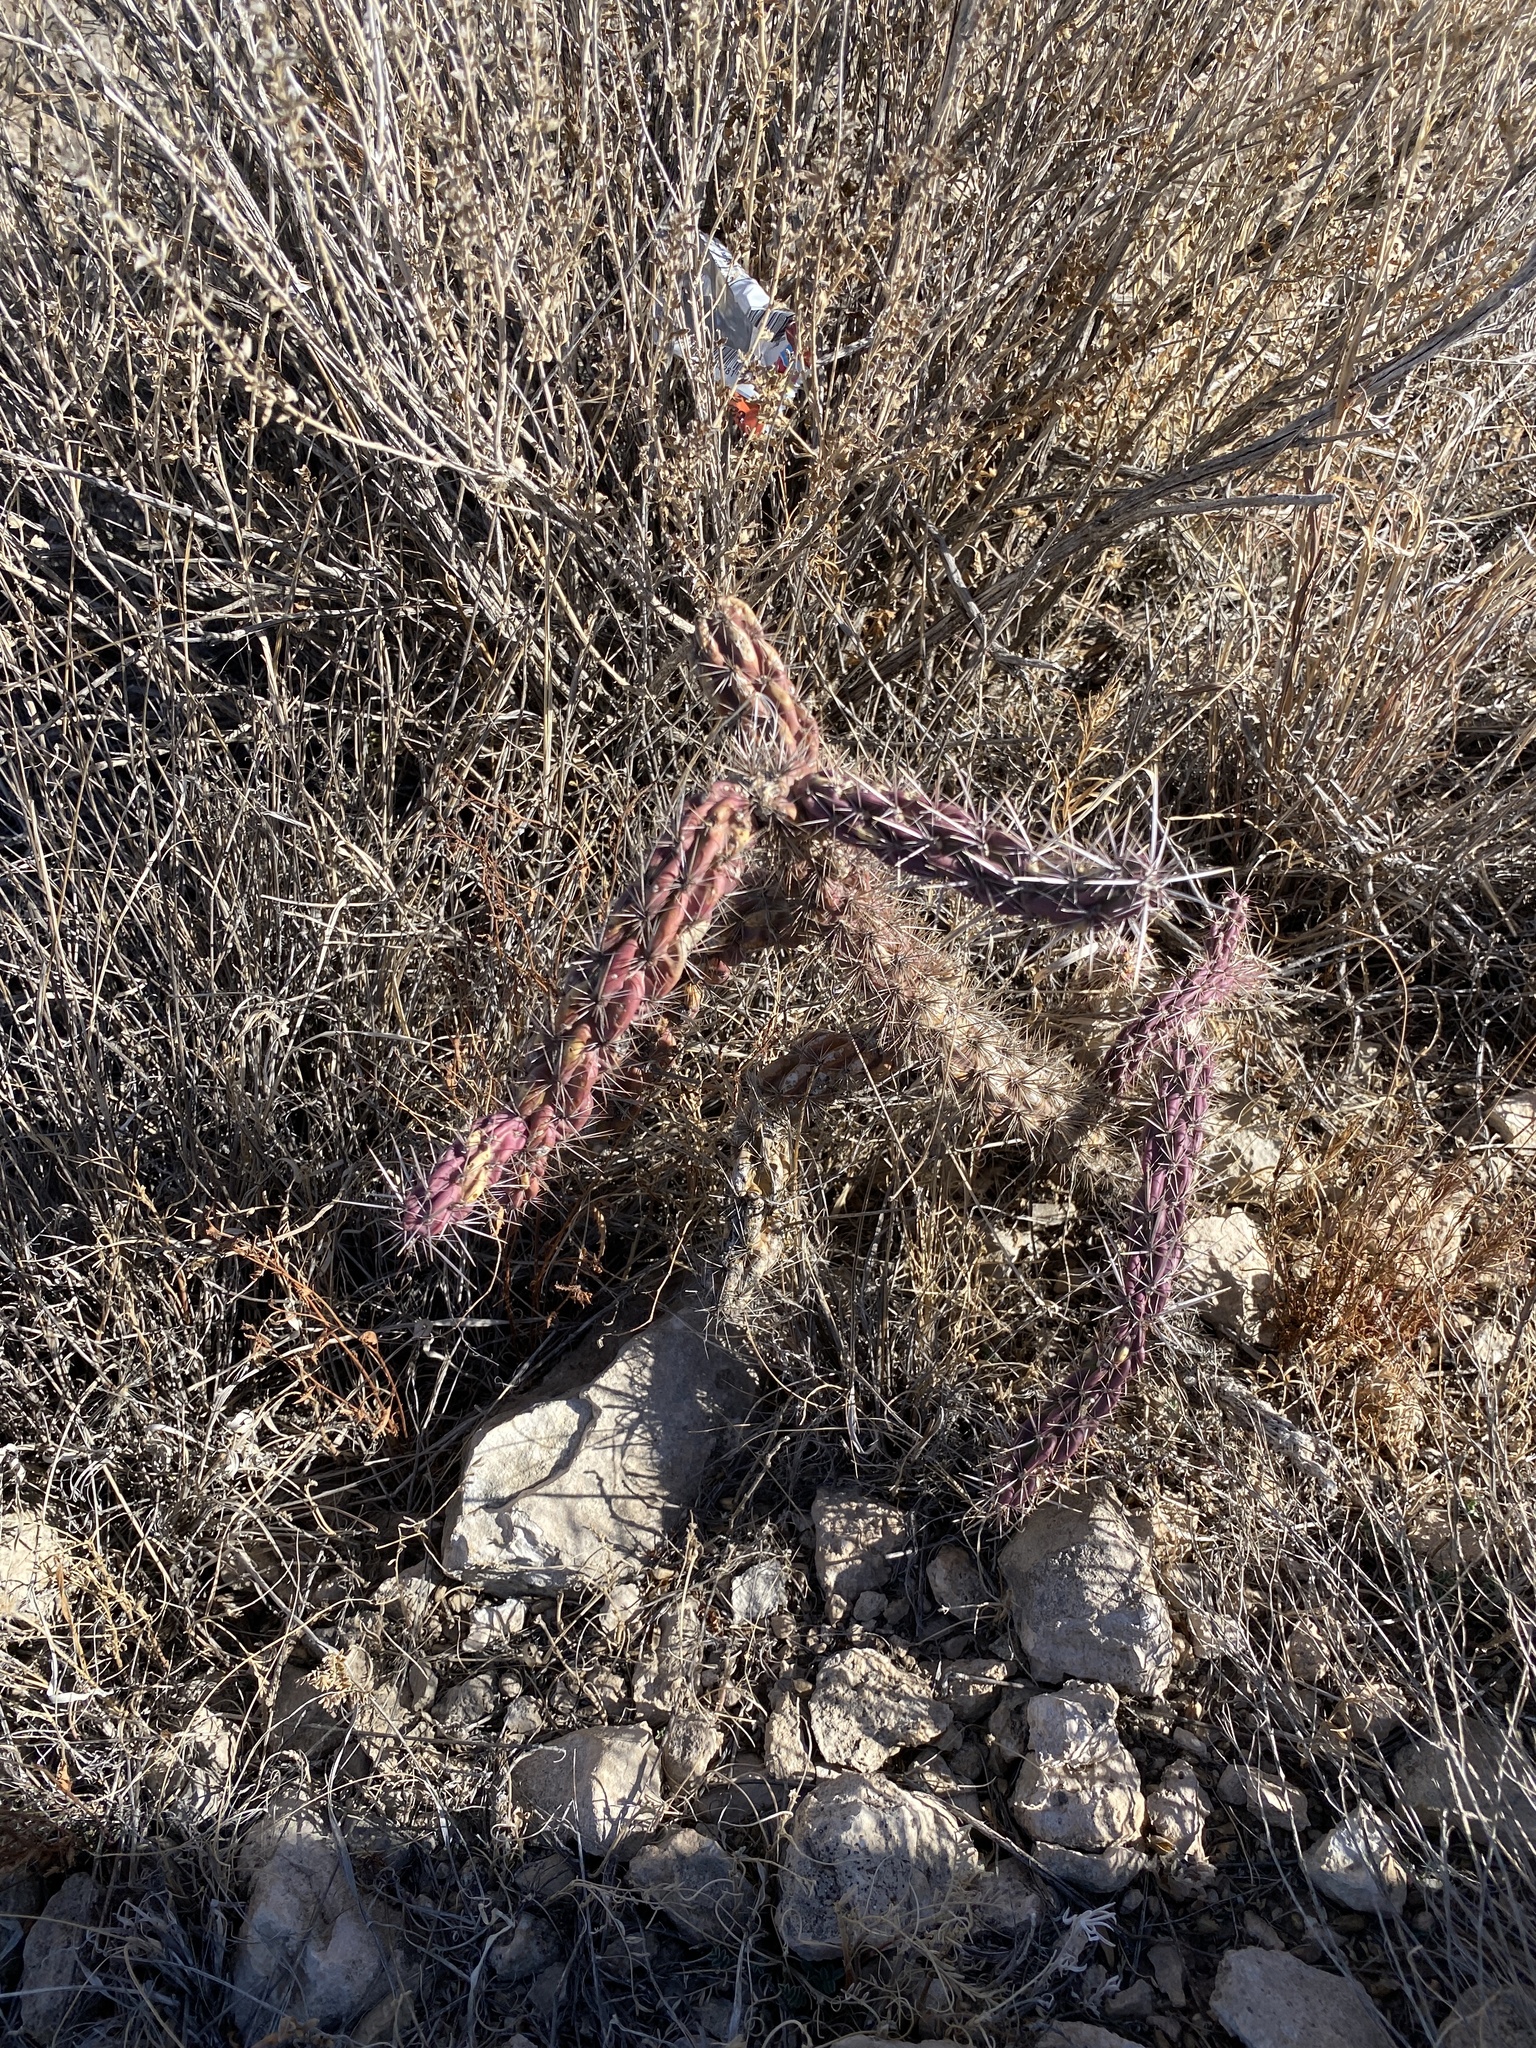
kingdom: Plantae
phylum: Tracheophyta
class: Magnoliopsida
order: Caryophyllales
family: Cactaceae
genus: Cylindropuntia
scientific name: Cylindropuntia imbricata
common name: Candelabrum cactus
